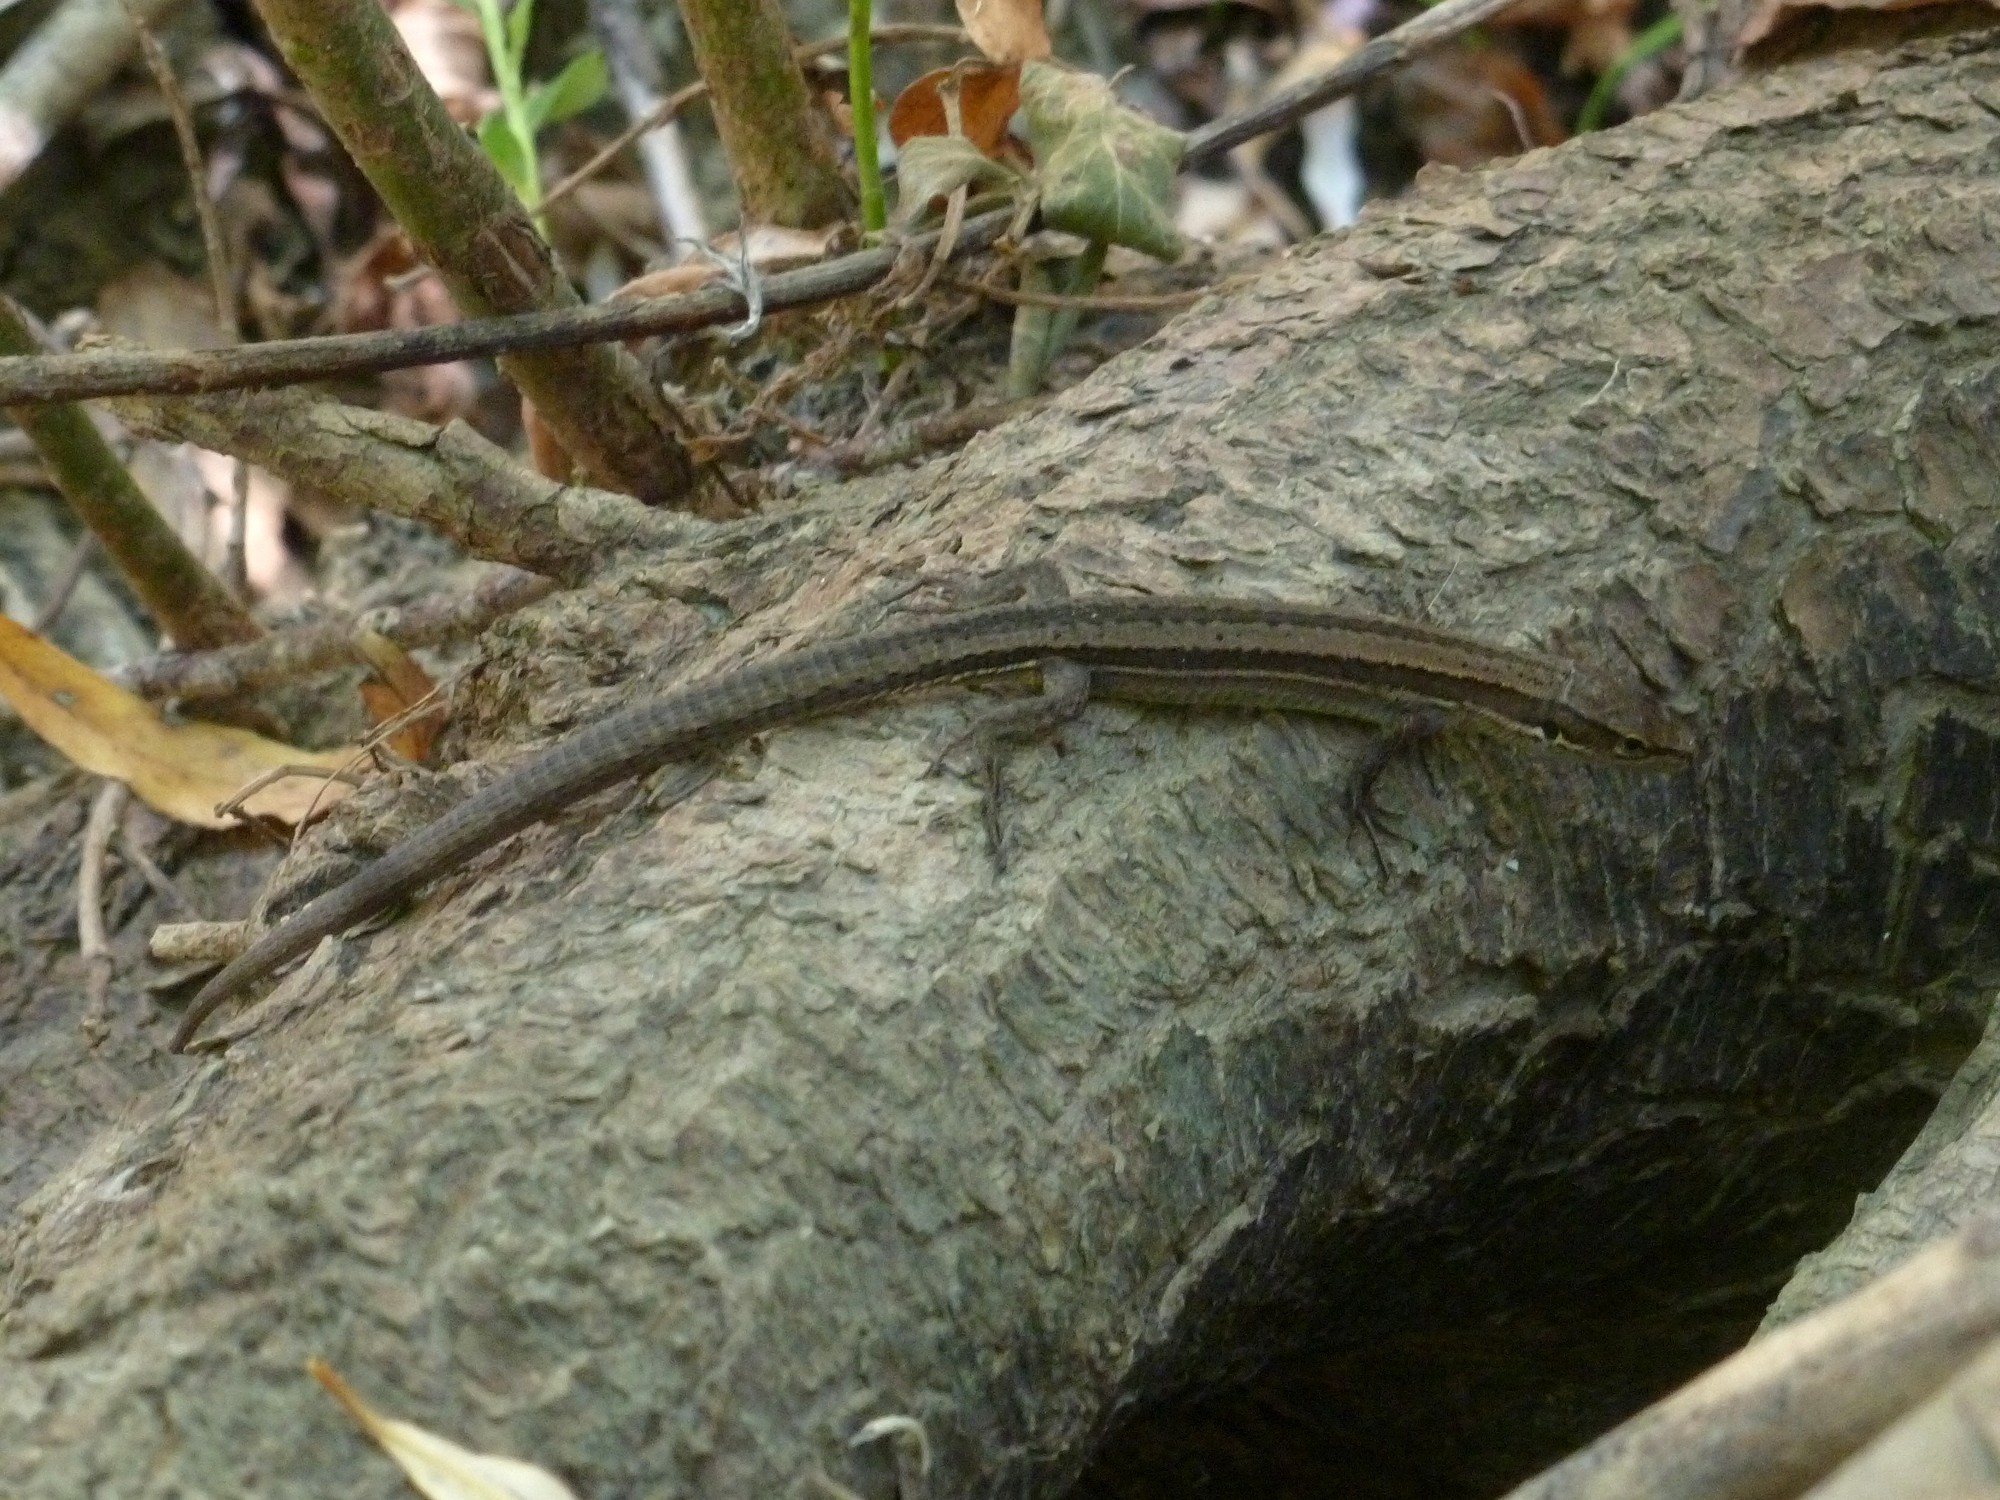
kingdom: Animalia
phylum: Chordata
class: Squamata
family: Lacertidae
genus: Darevskia
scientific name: Darevskia praticola
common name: Meadow lizard
